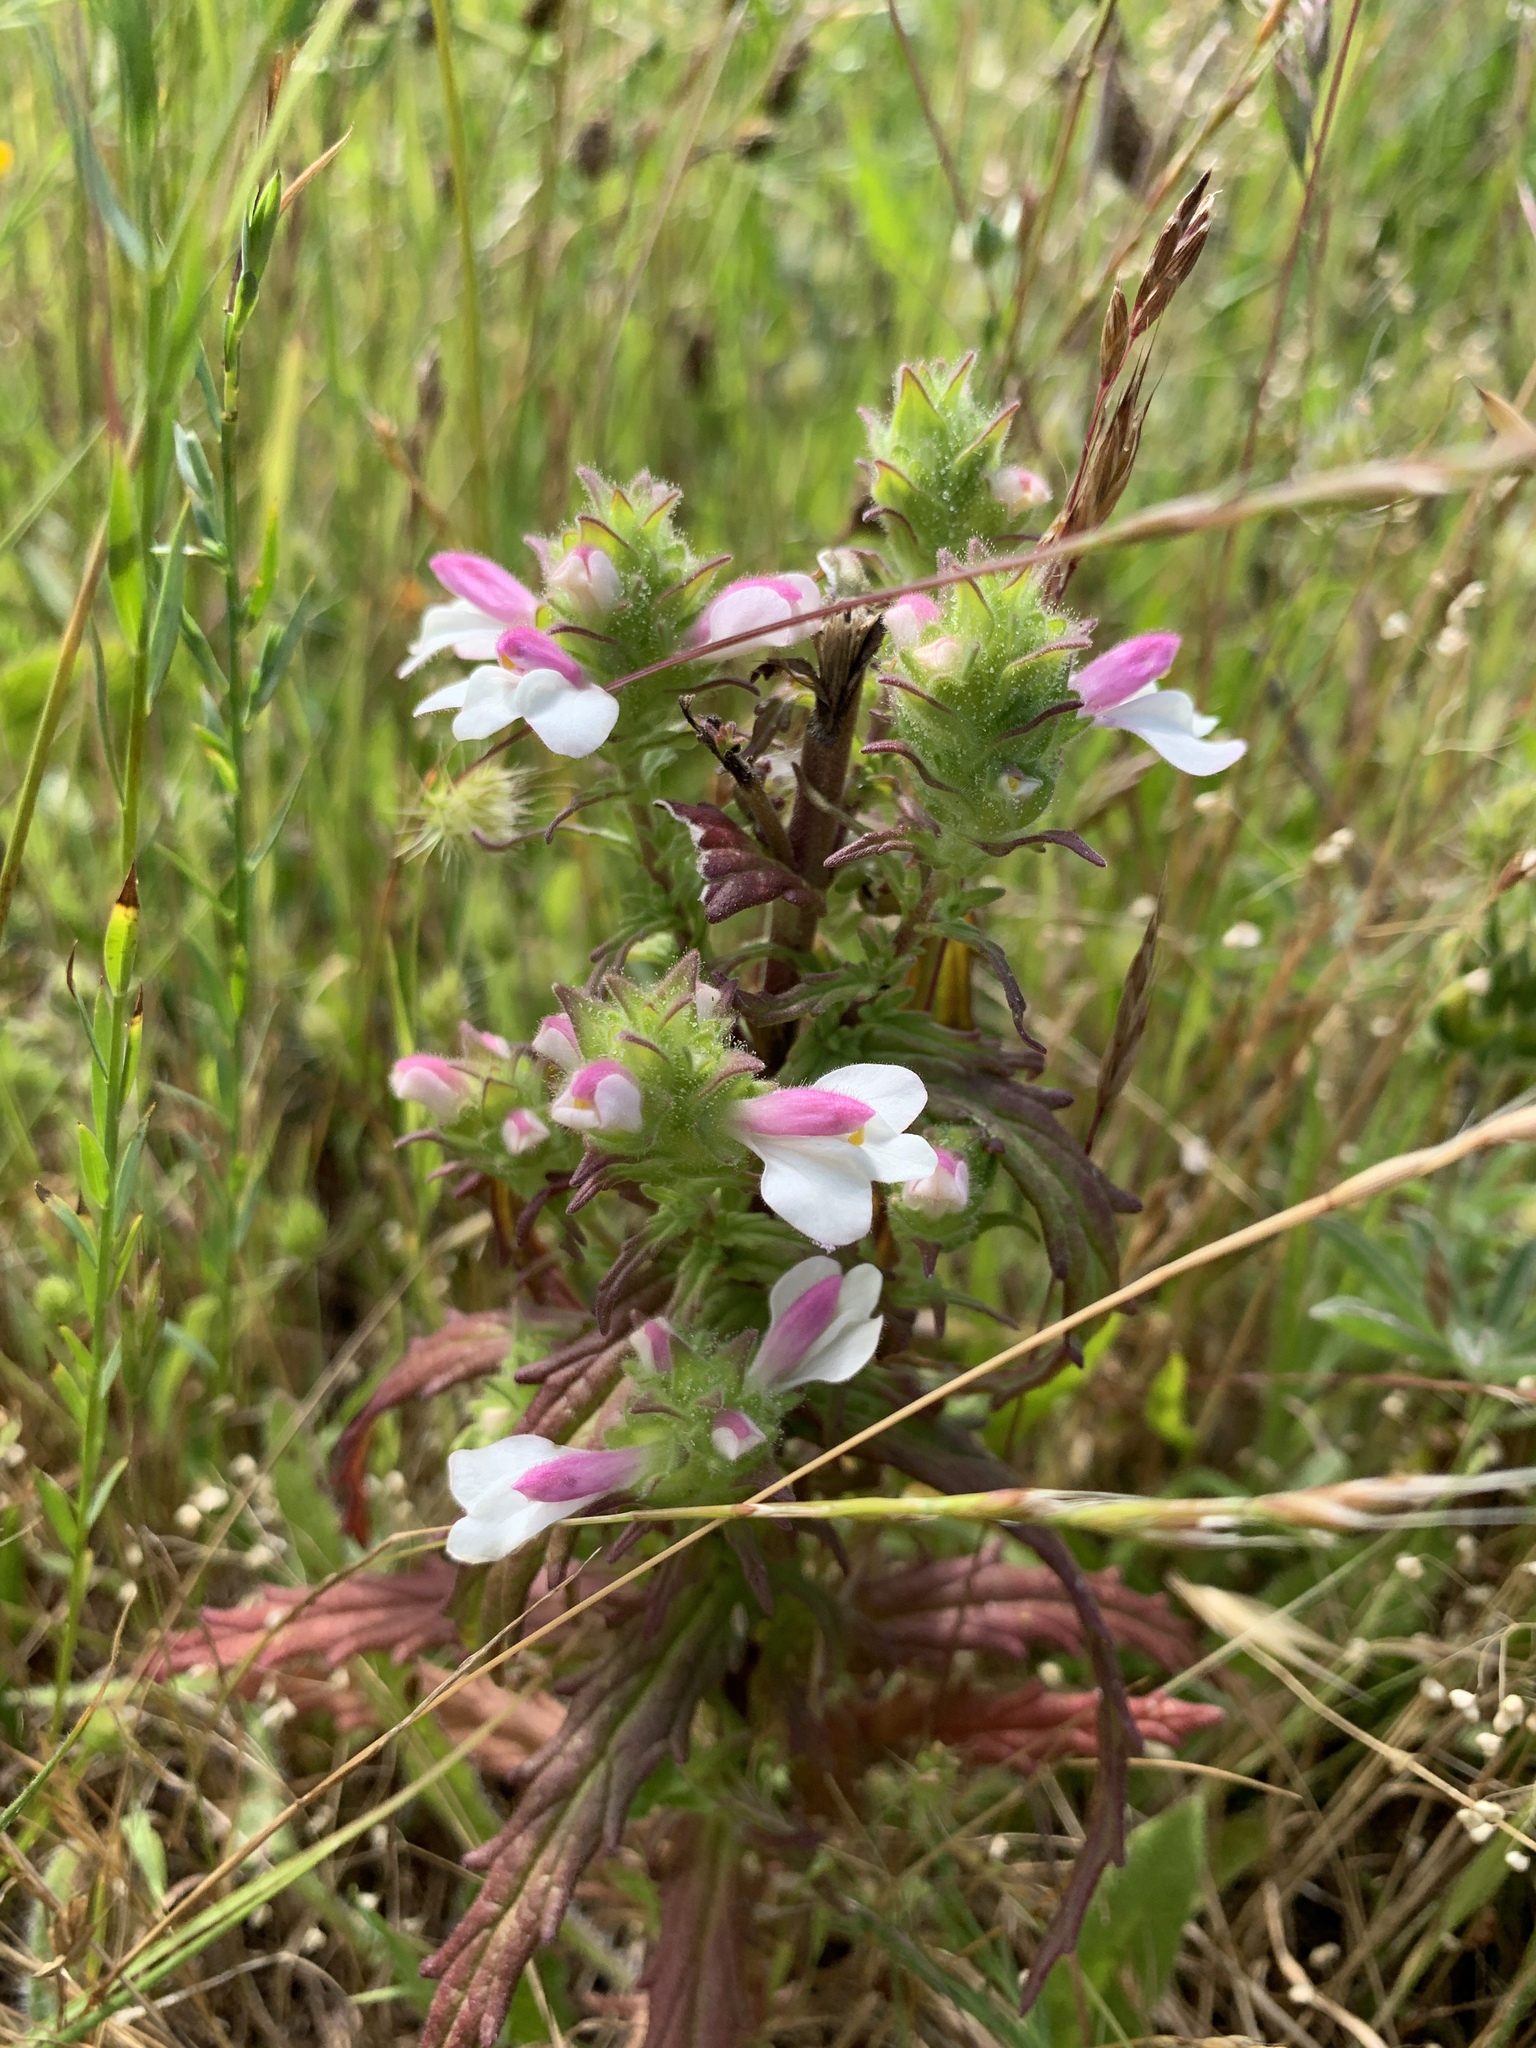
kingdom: Plantae
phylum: Tracheophyta
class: Magnoliopsida
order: Lamiales
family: Orobanchaceae
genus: Bellardia
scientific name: Bellardia trixago
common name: Mediterranean lineseed
